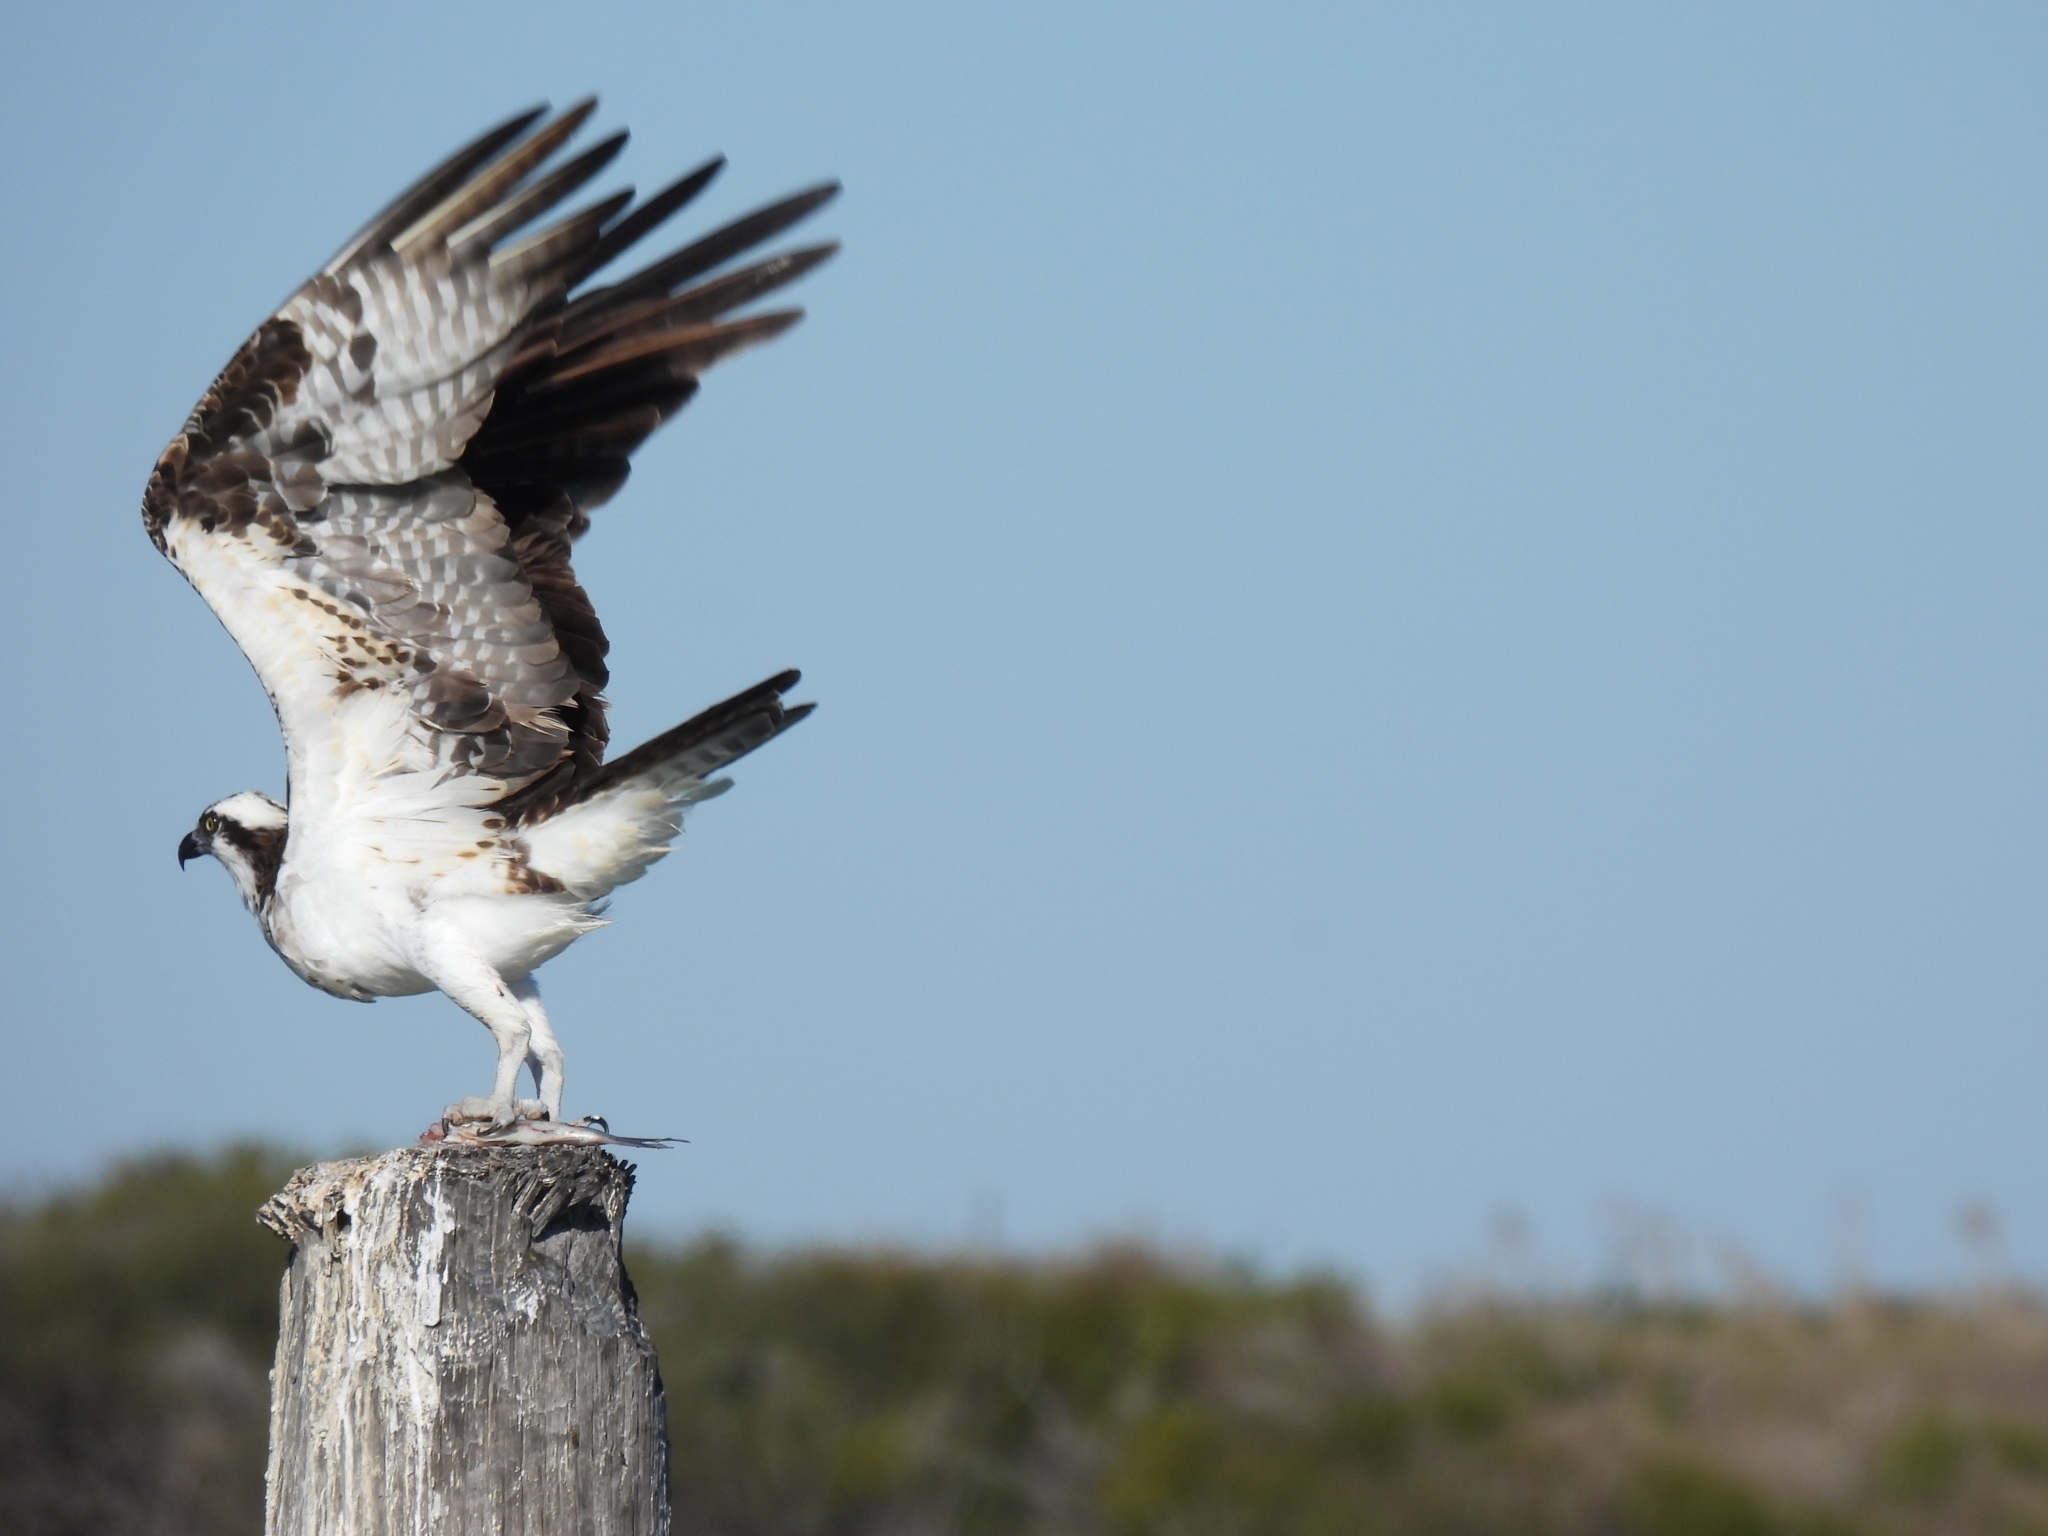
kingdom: Animalia
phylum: Chordata
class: Aves
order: Accipitriformes
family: Pandionidae
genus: Pandion
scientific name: Pandion haliaetus
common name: Osprey
